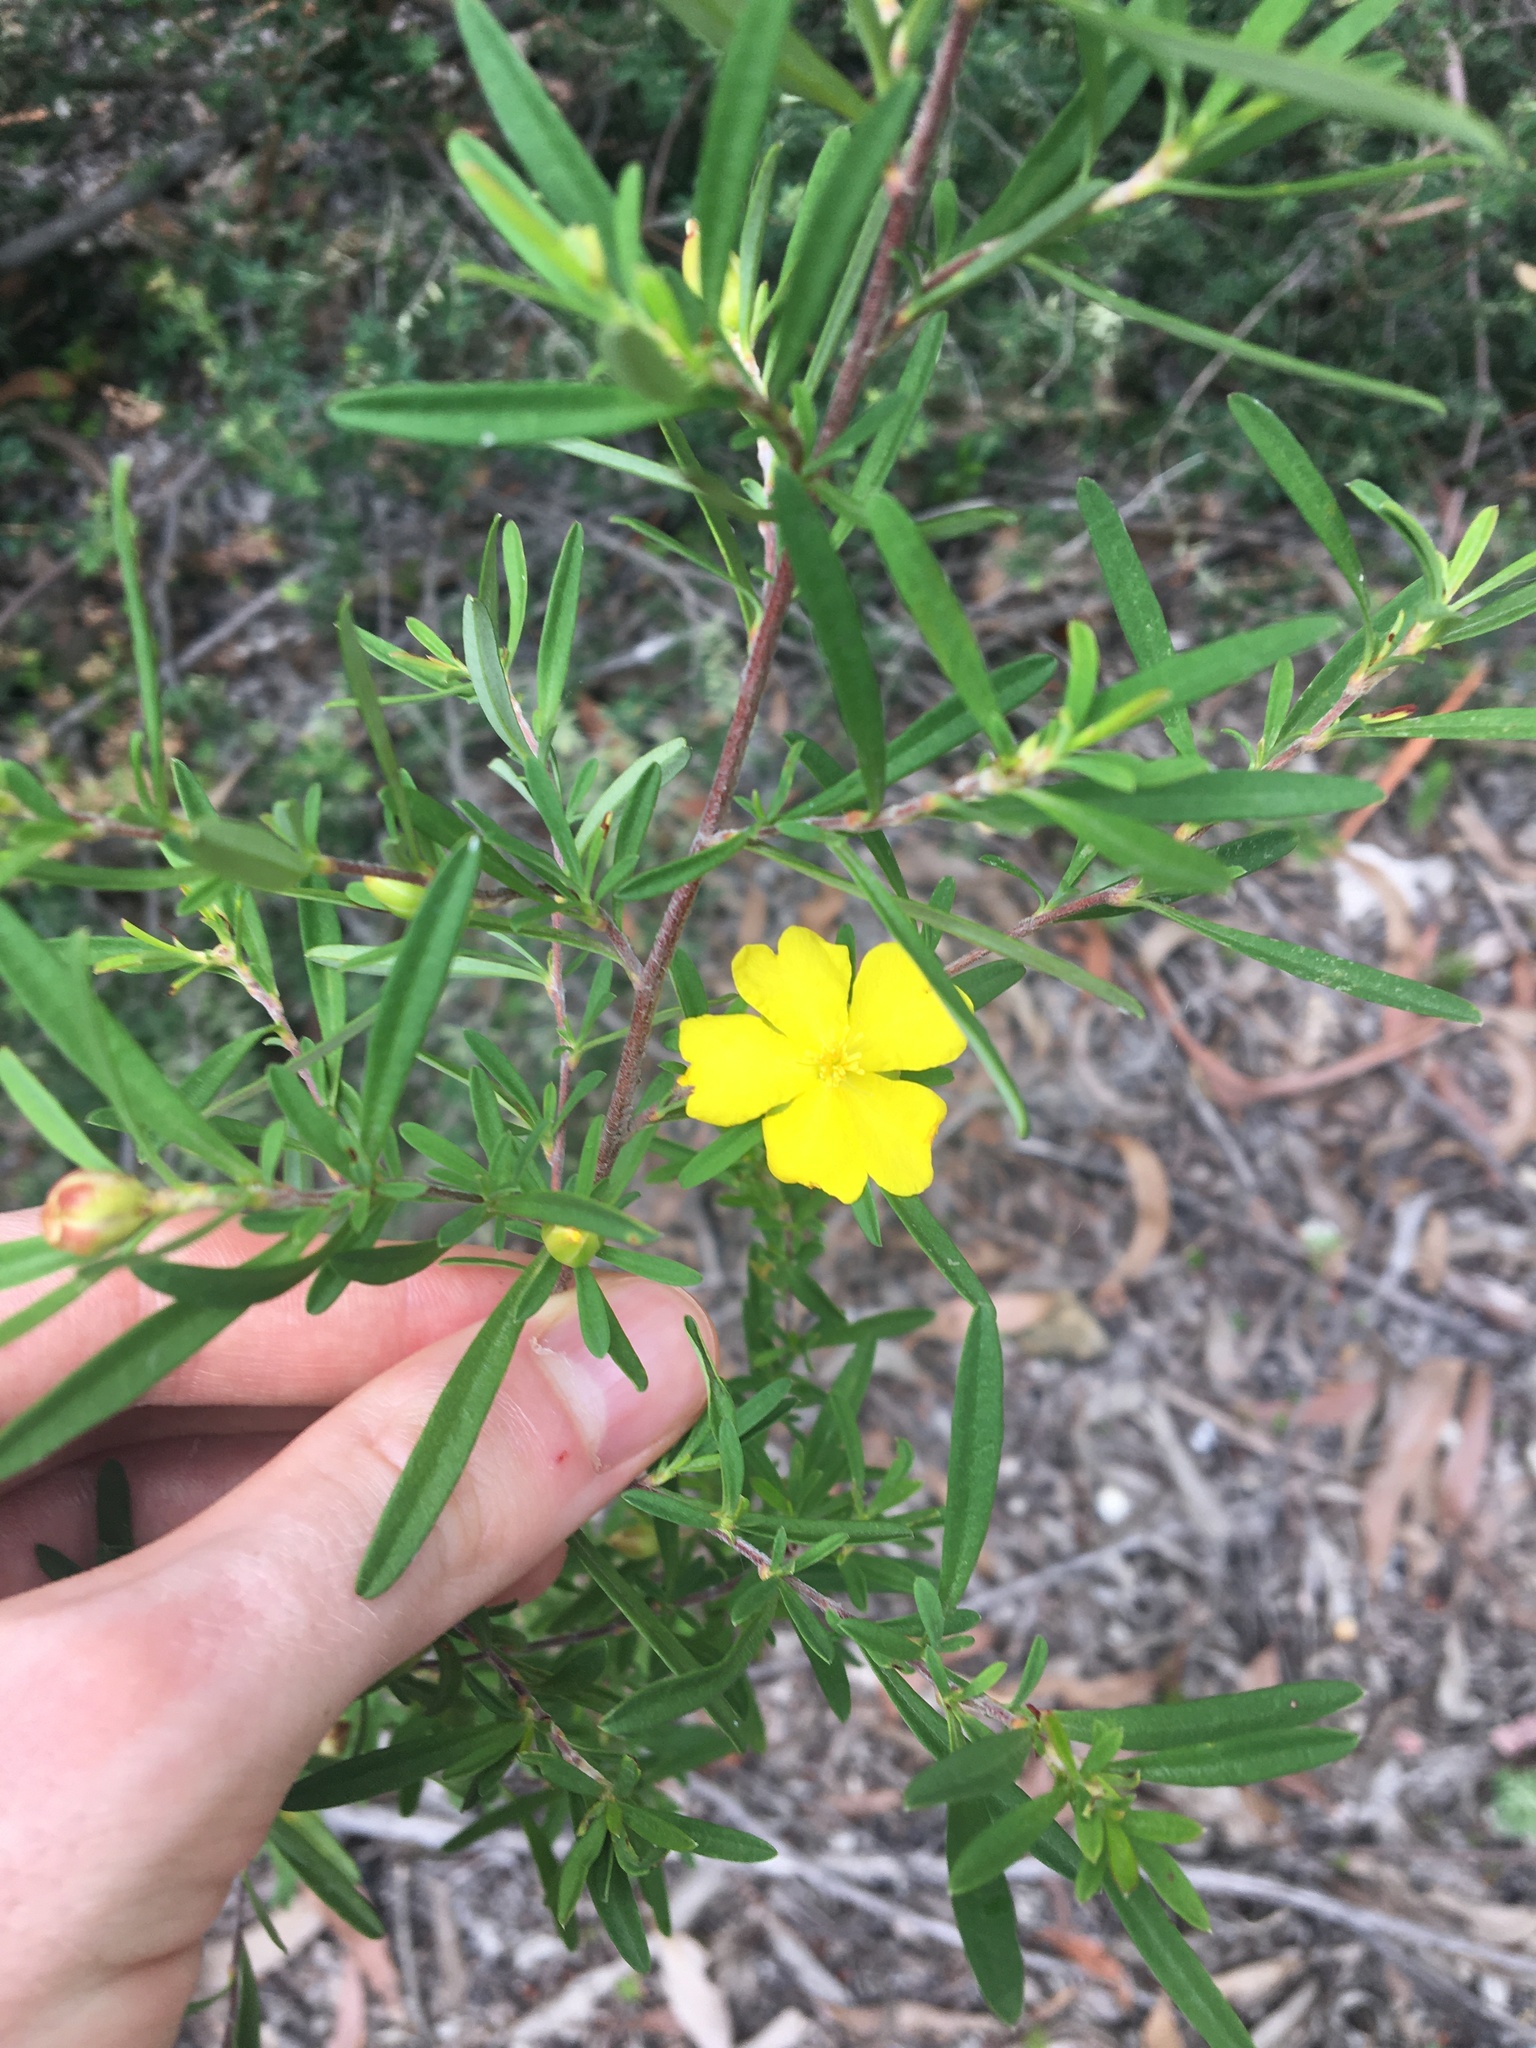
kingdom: Plantae
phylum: Tracheophyta
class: Magnoliopsida
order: Dilleniales
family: Dilleniaceae
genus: Hibbertia
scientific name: Hibbertia linearis
